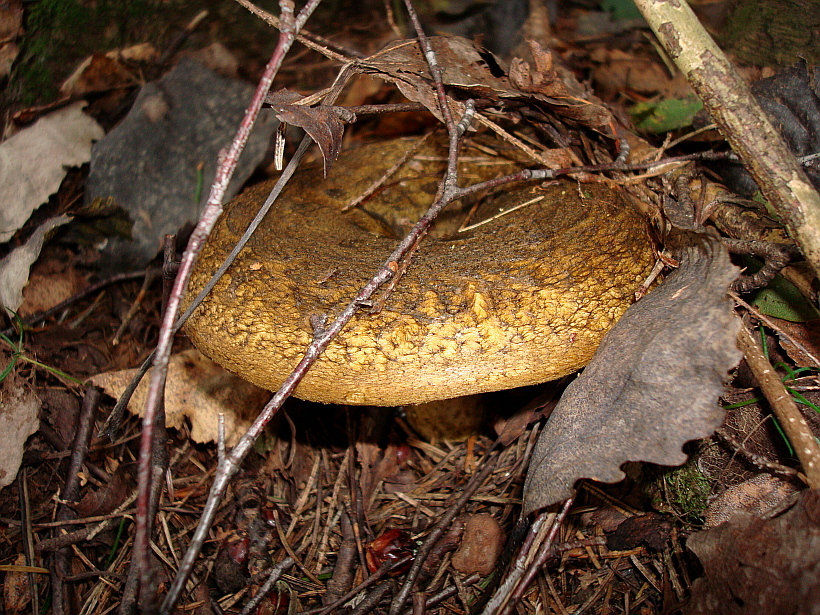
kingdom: Fungi
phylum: Basidiomycota
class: Agaricomycetes
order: Russulales
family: Russulaceae
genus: Lactarius
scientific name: Lactarius turpis
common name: Ugly milk-cap
